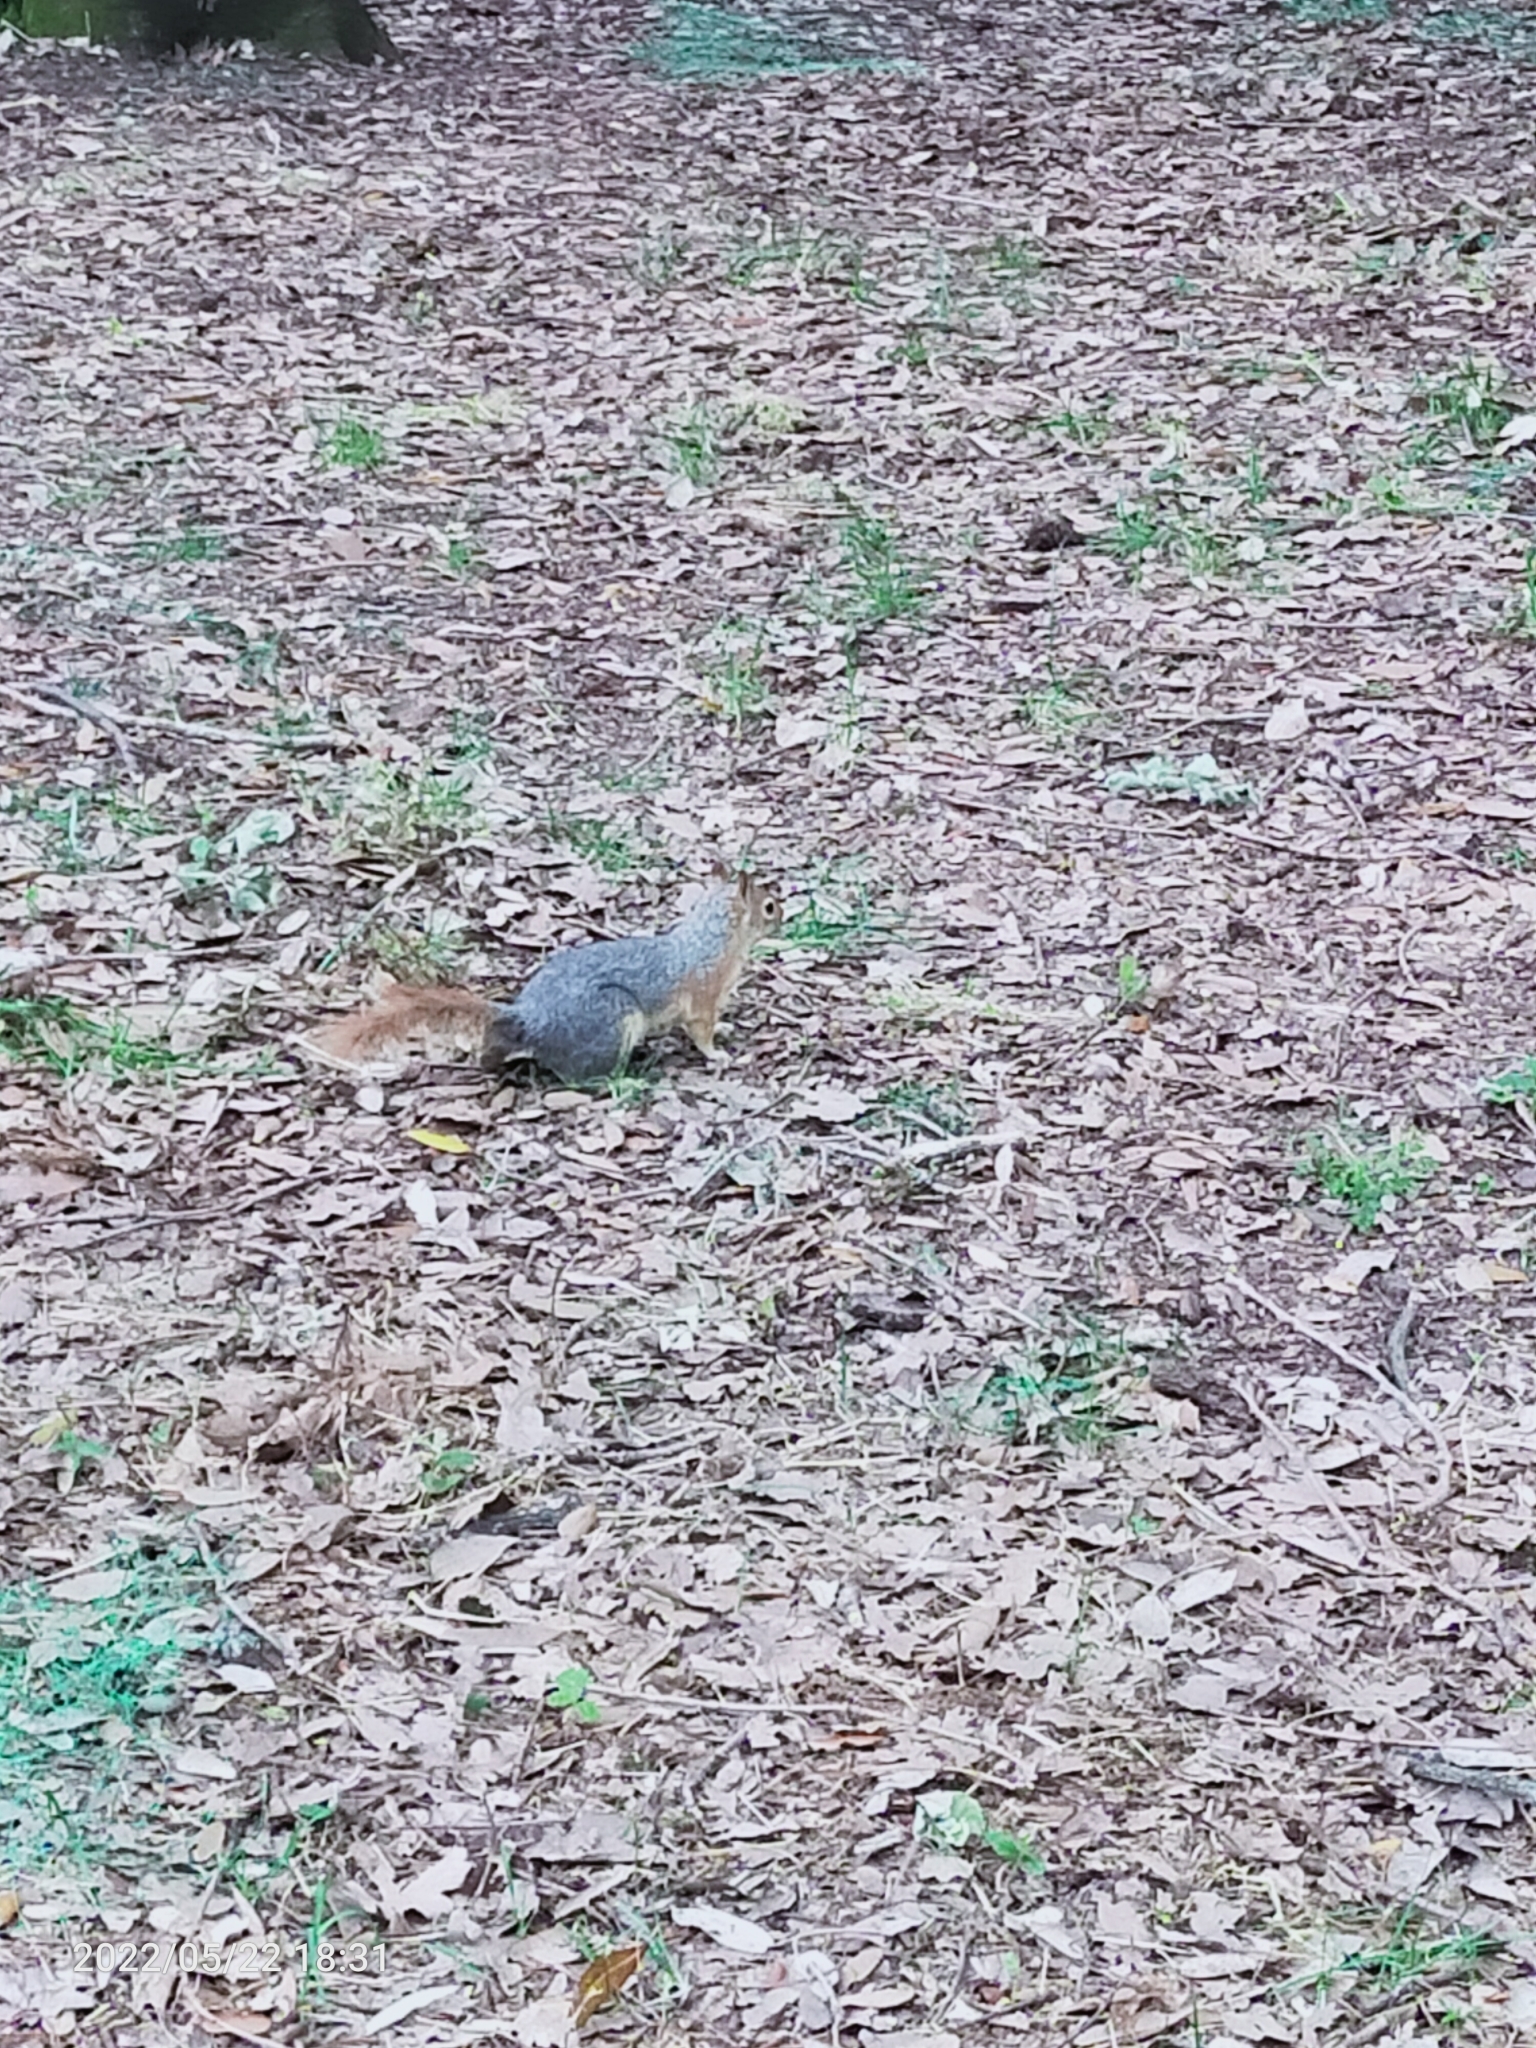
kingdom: Animalia
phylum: Chordata
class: Mammalia
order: Rodentia
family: Sciuridae
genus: Sciurus
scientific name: Sciurus anomalus
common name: Caucasian squirrel
